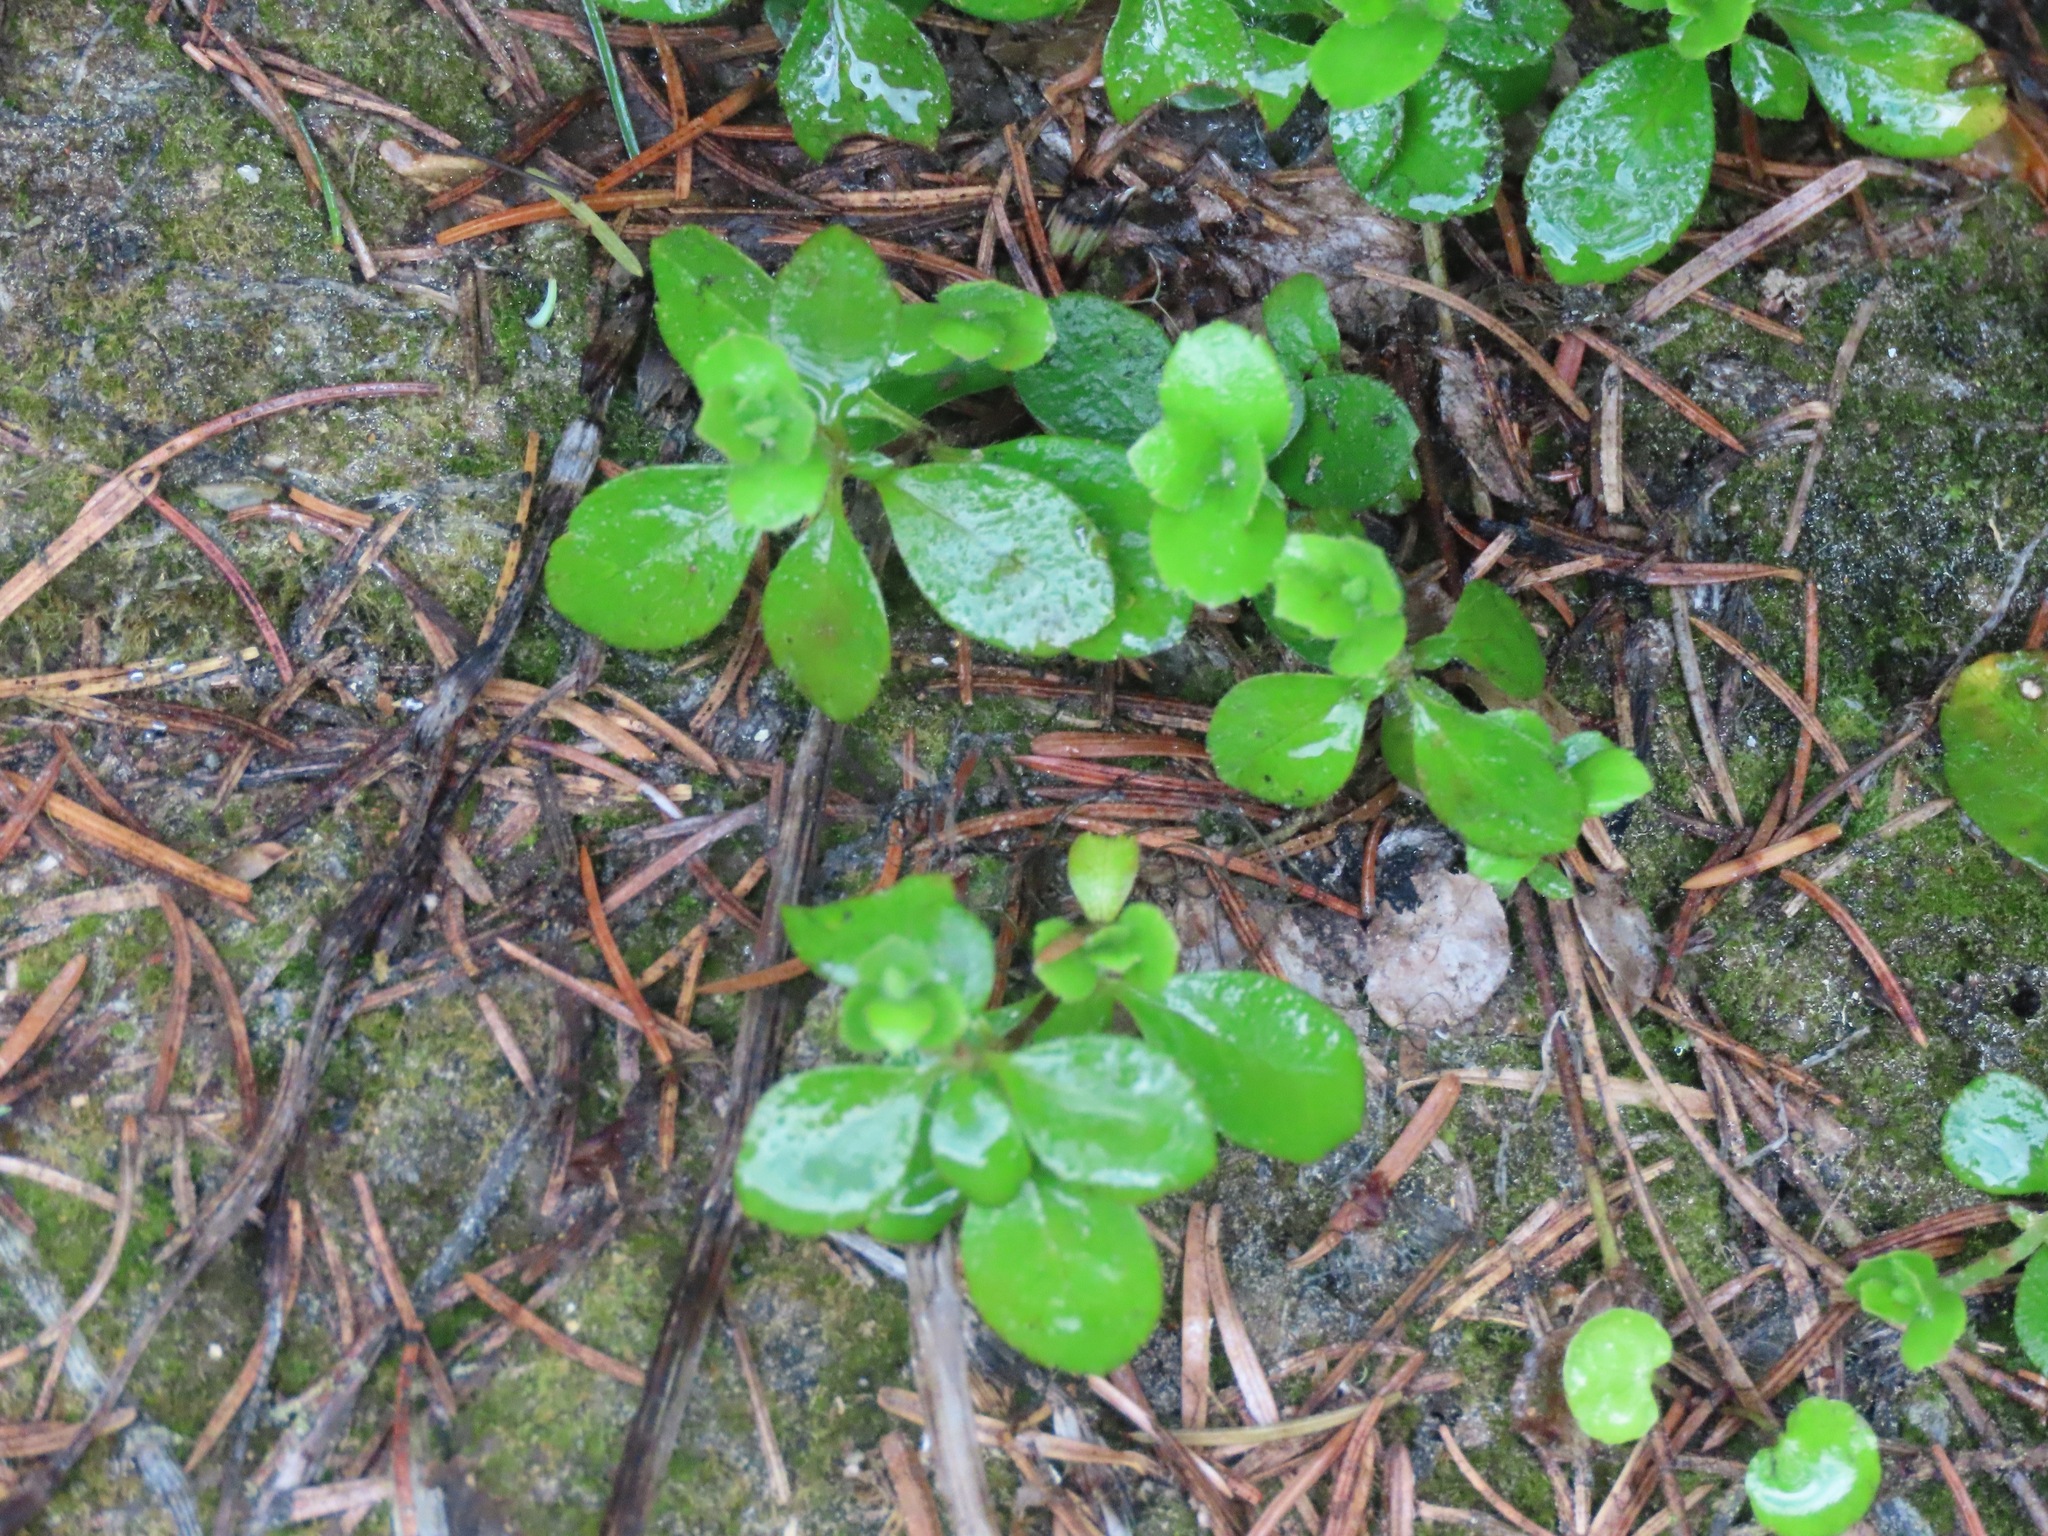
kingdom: Plantae
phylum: Tracheophyta
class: Magnoliopsida
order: Dipsacales
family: Caprifoliaceae
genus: Linnaea
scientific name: Linnaea borealis
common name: Twinflower
